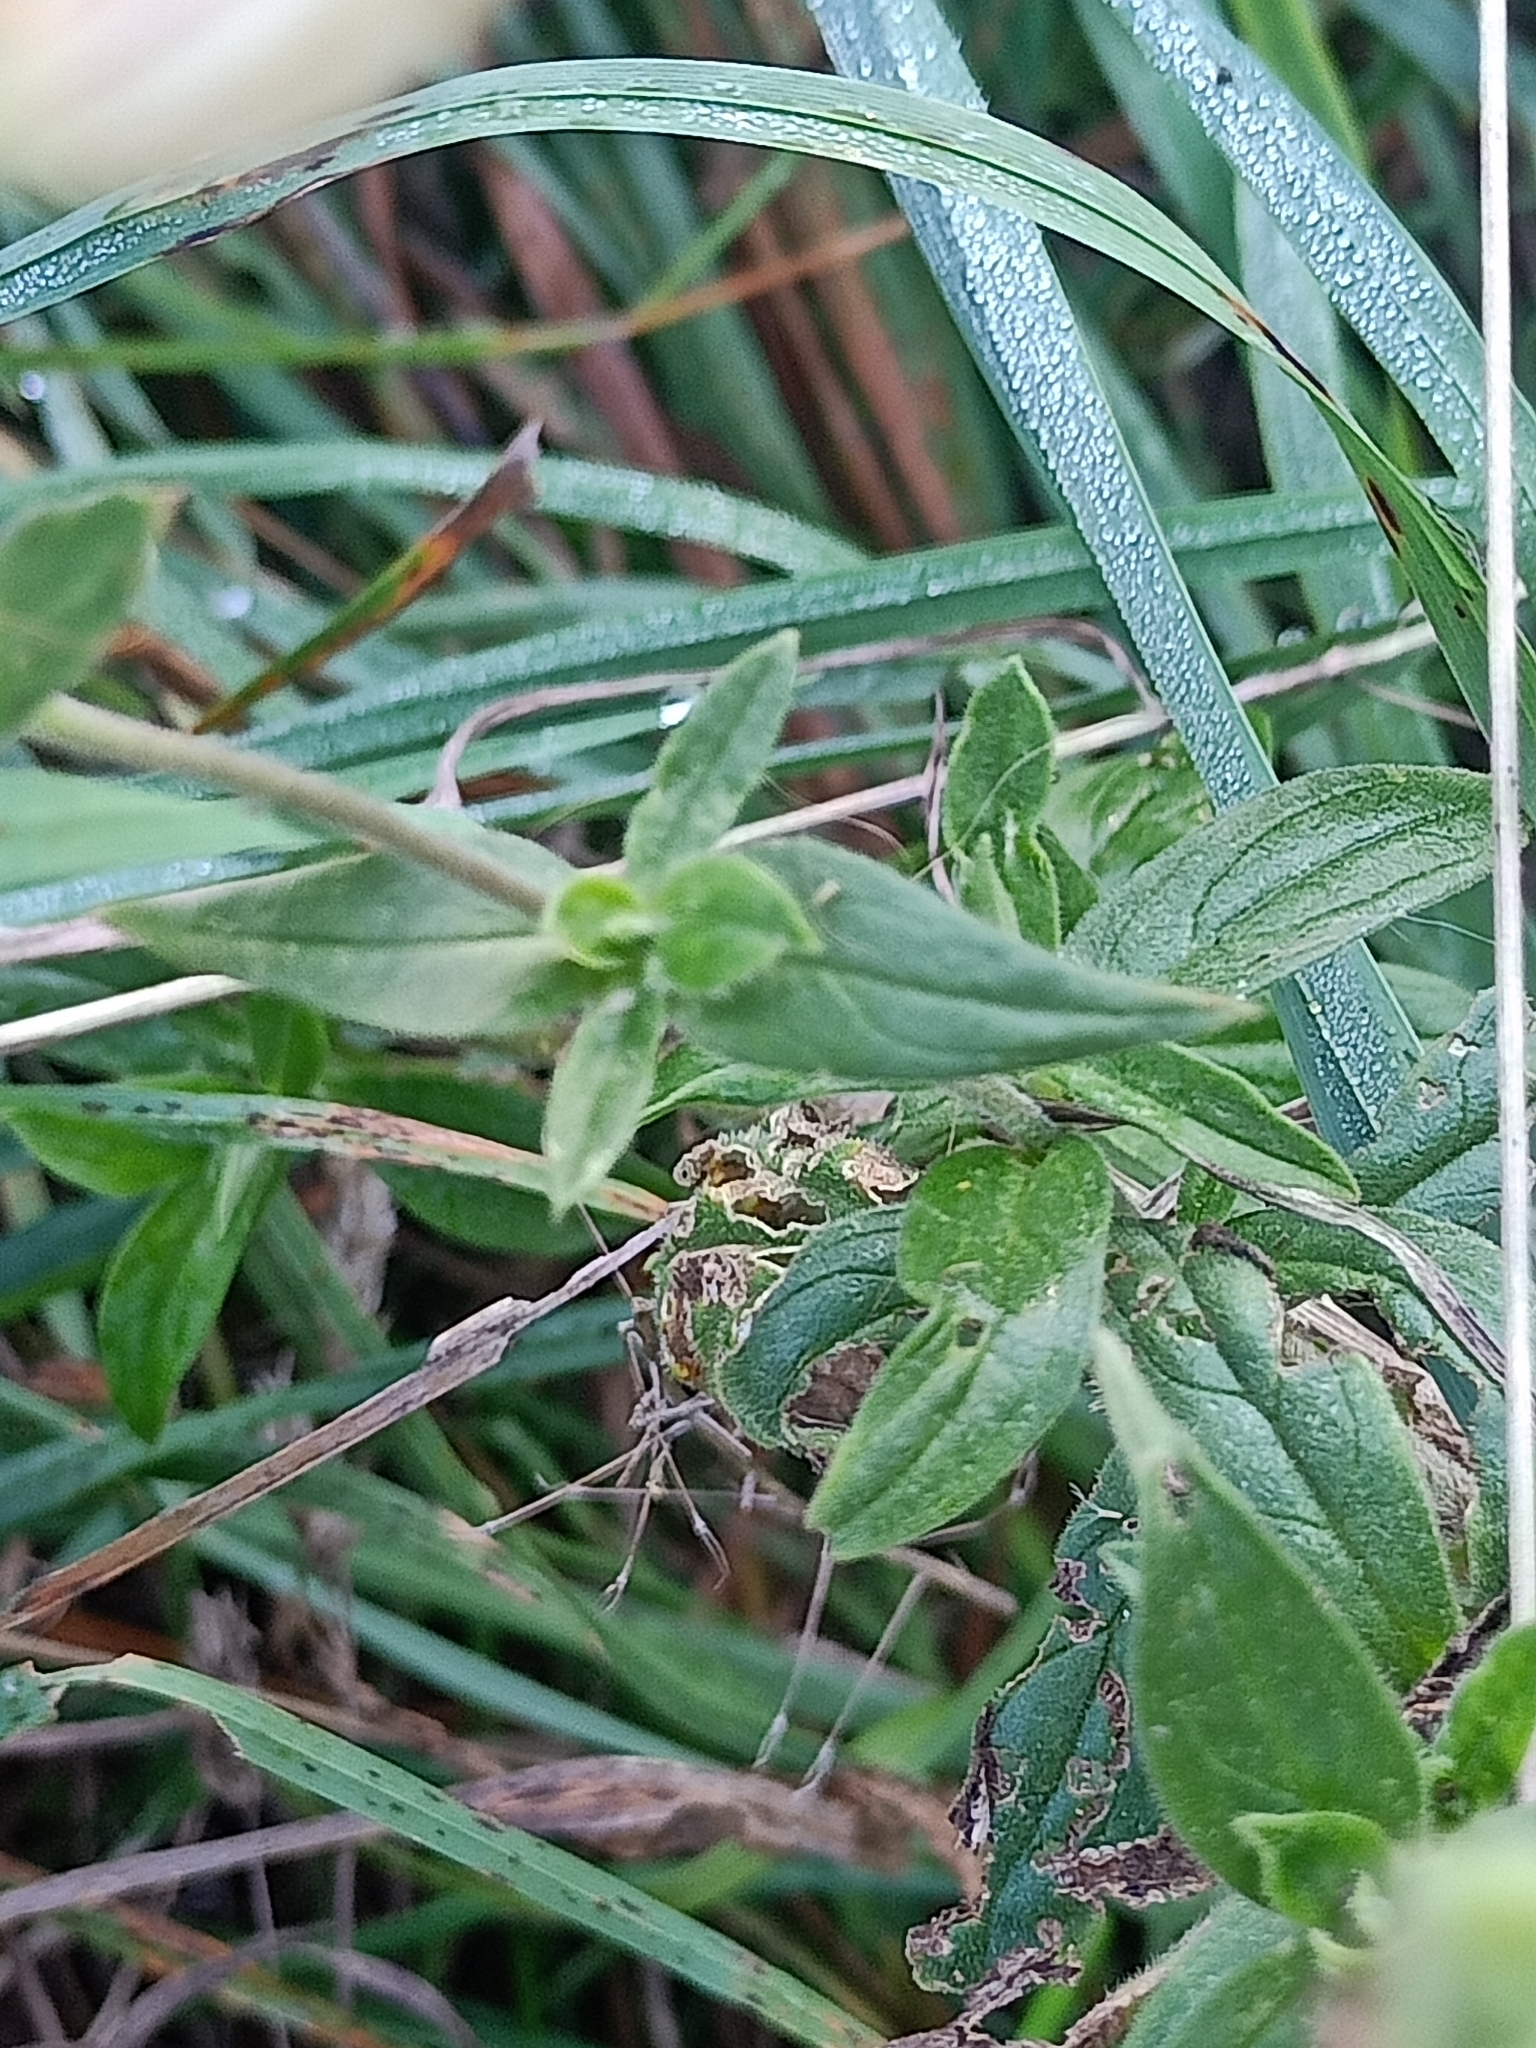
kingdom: Plantae
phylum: Tracheophyta
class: Magnoliopsida
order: Caryophyllales
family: Caryophyllaceae
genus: Silene
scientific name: Silene latifolia
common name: White campion
